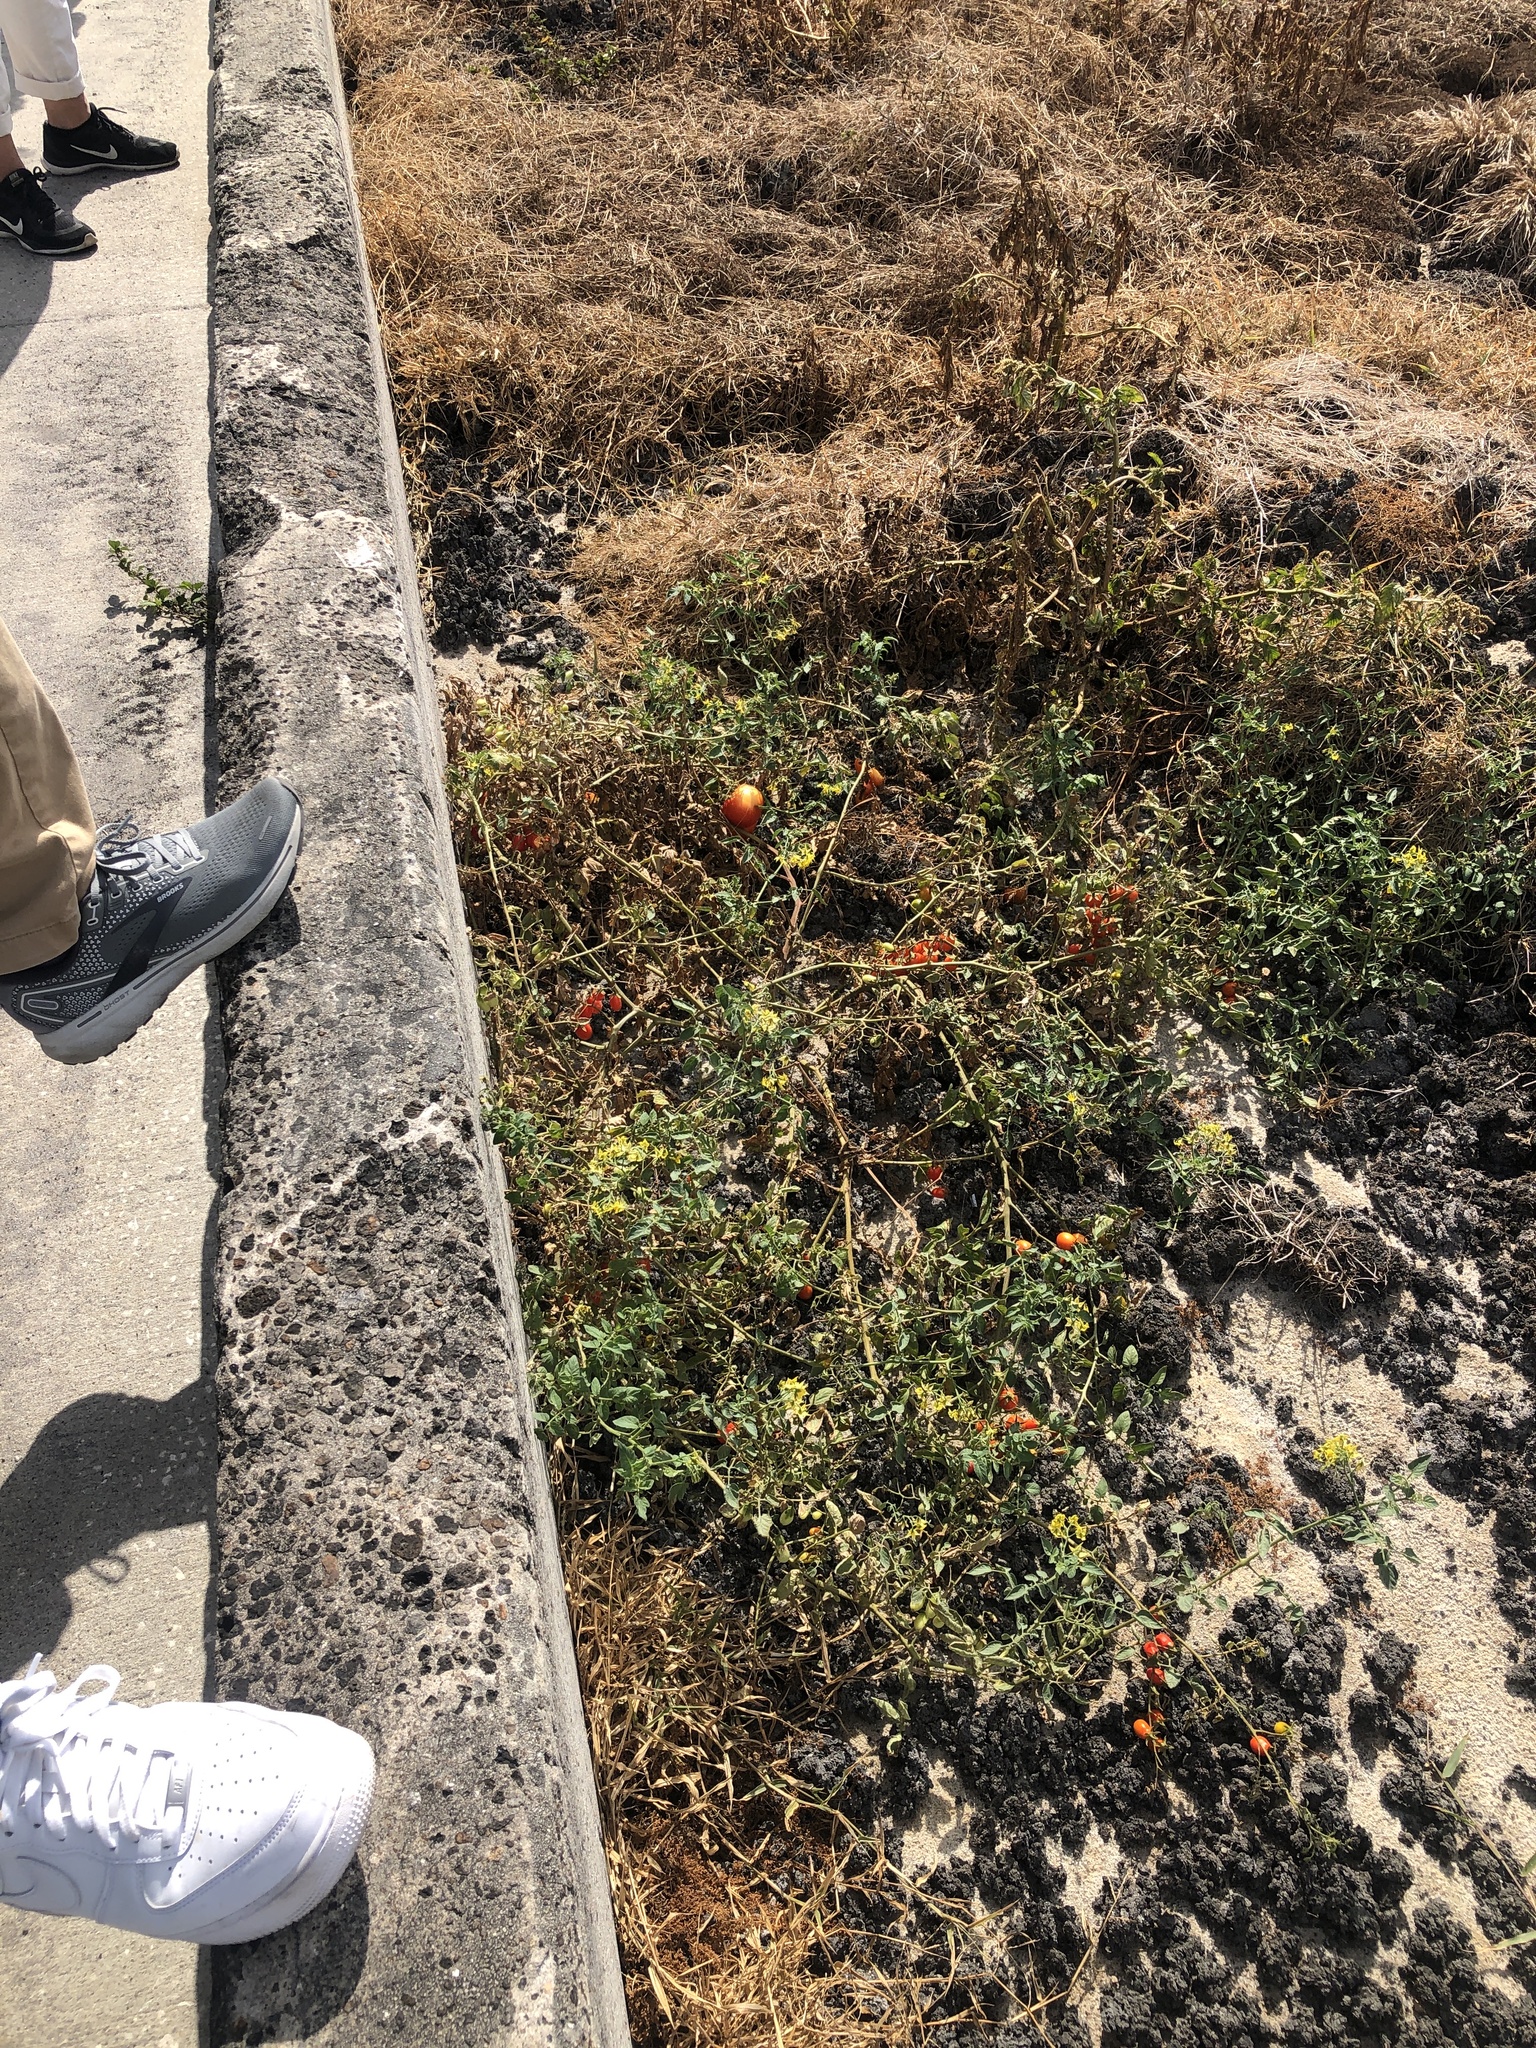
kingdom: Plantae
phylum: Tracheophyta
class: Magnoliopsida
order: Solanales
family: Solanaceae
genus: Solanum
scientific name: Solanum lycopersicum
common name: Garden tomato
